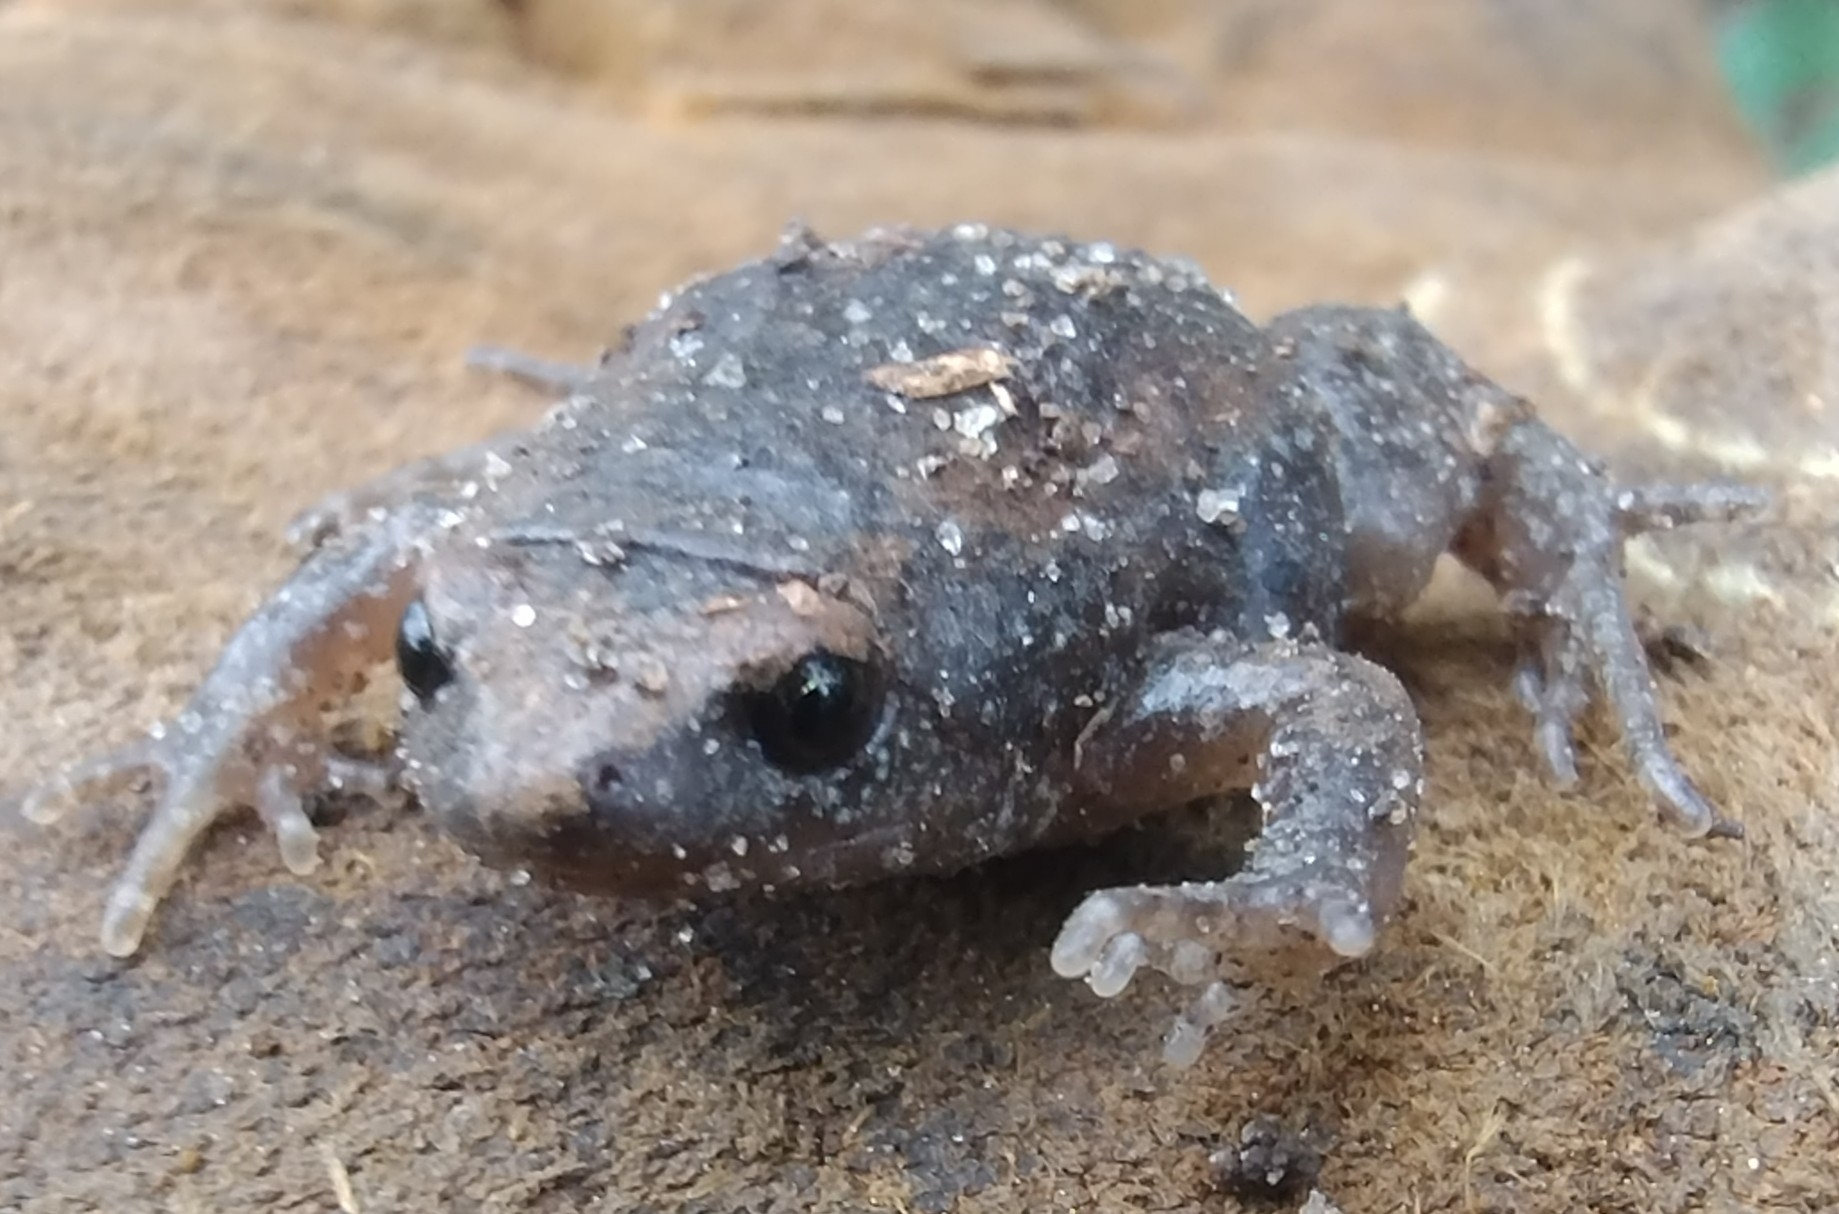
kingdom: Animalia
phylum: Chordata
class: Amphibia
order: Anura
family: Microhylidae
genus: Gastrophryne
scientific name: Gastrophryne carolinensis
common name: Eastern narrowmouth toad
